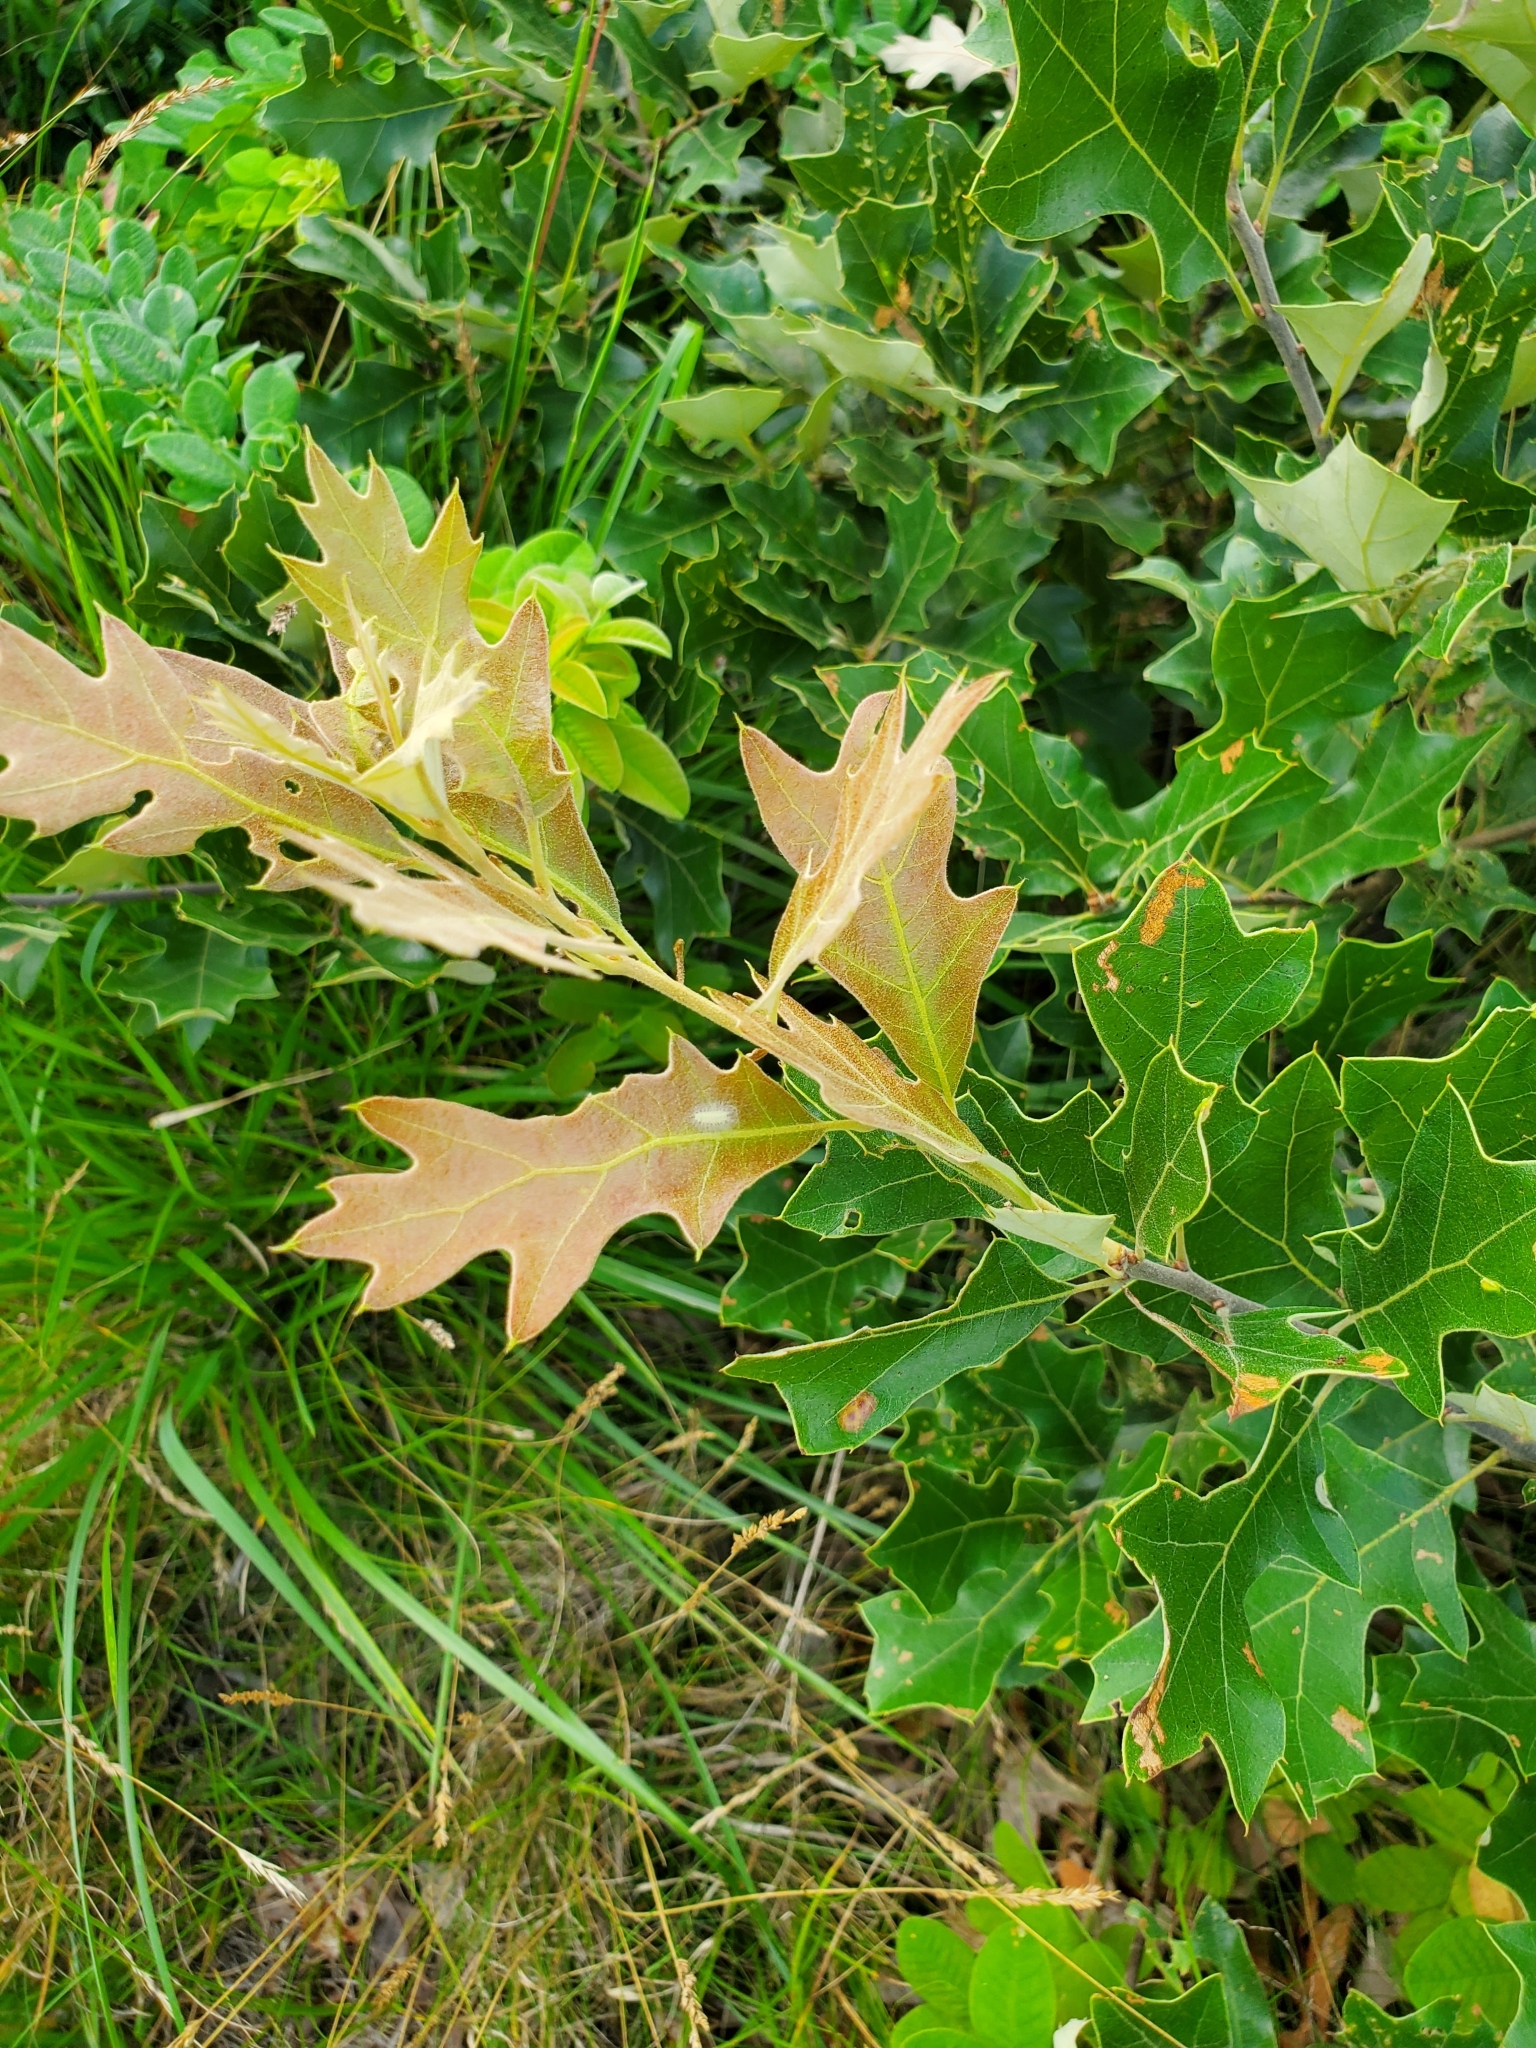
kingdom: Plantae
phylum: Tracheophyta
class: Magnoliopsida
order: Fagales
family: Fagaceae
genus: Quercus
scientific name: Quercus ilicifolia
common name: Bear oak
